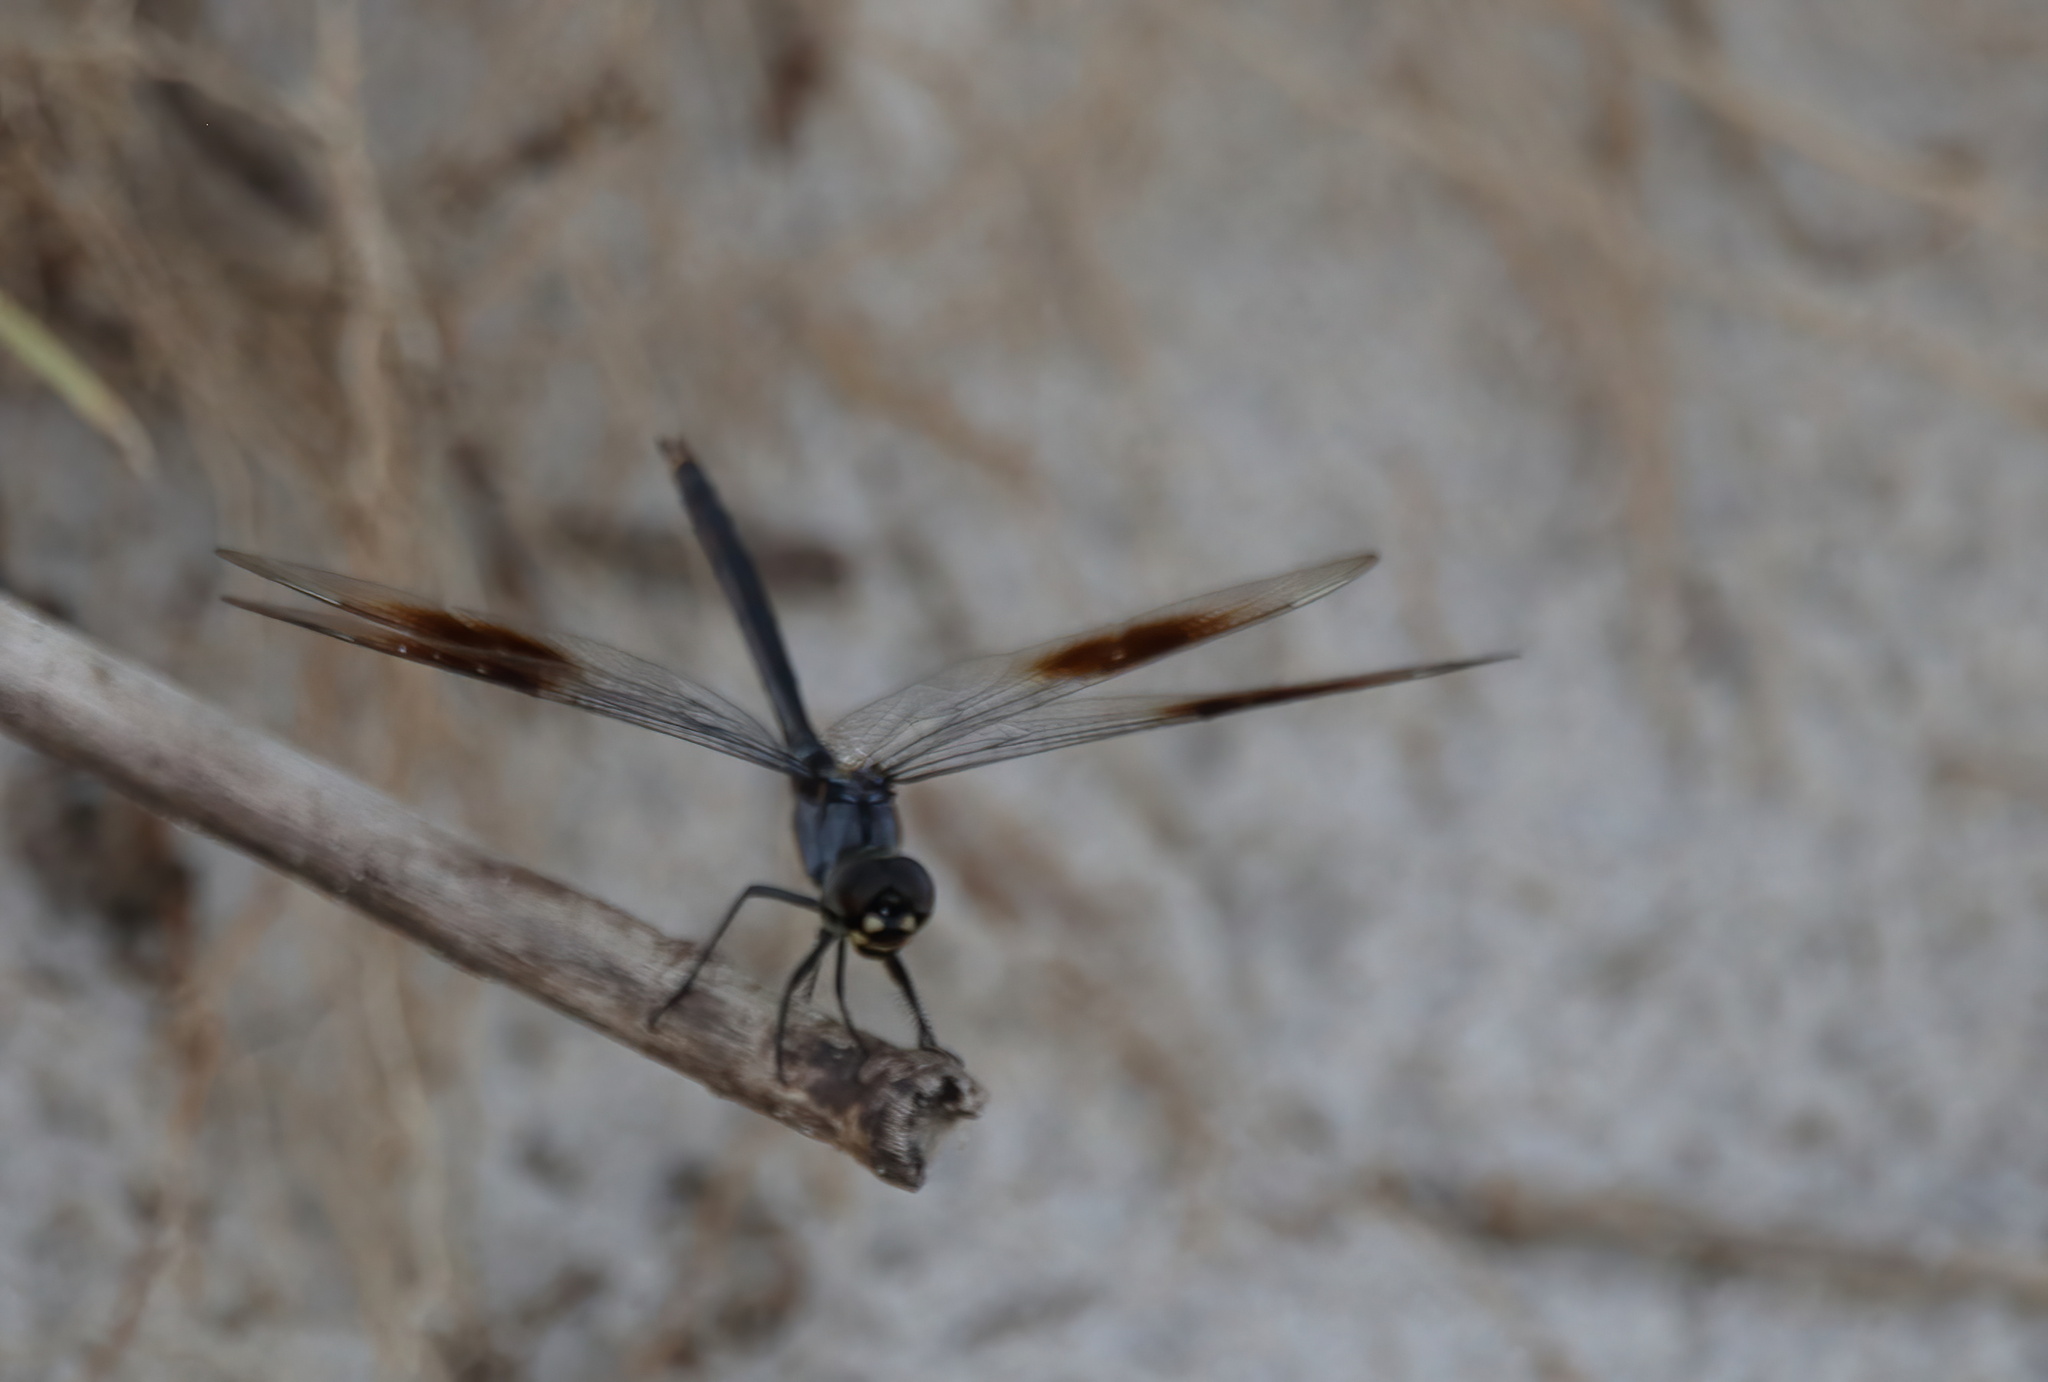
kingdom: Animalia
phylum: Arthropoda
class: Insecta
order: Odonata
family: Libellulidae
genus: Brachymesia
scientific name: Brachymesia gravida
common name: Four-spotted pennant
